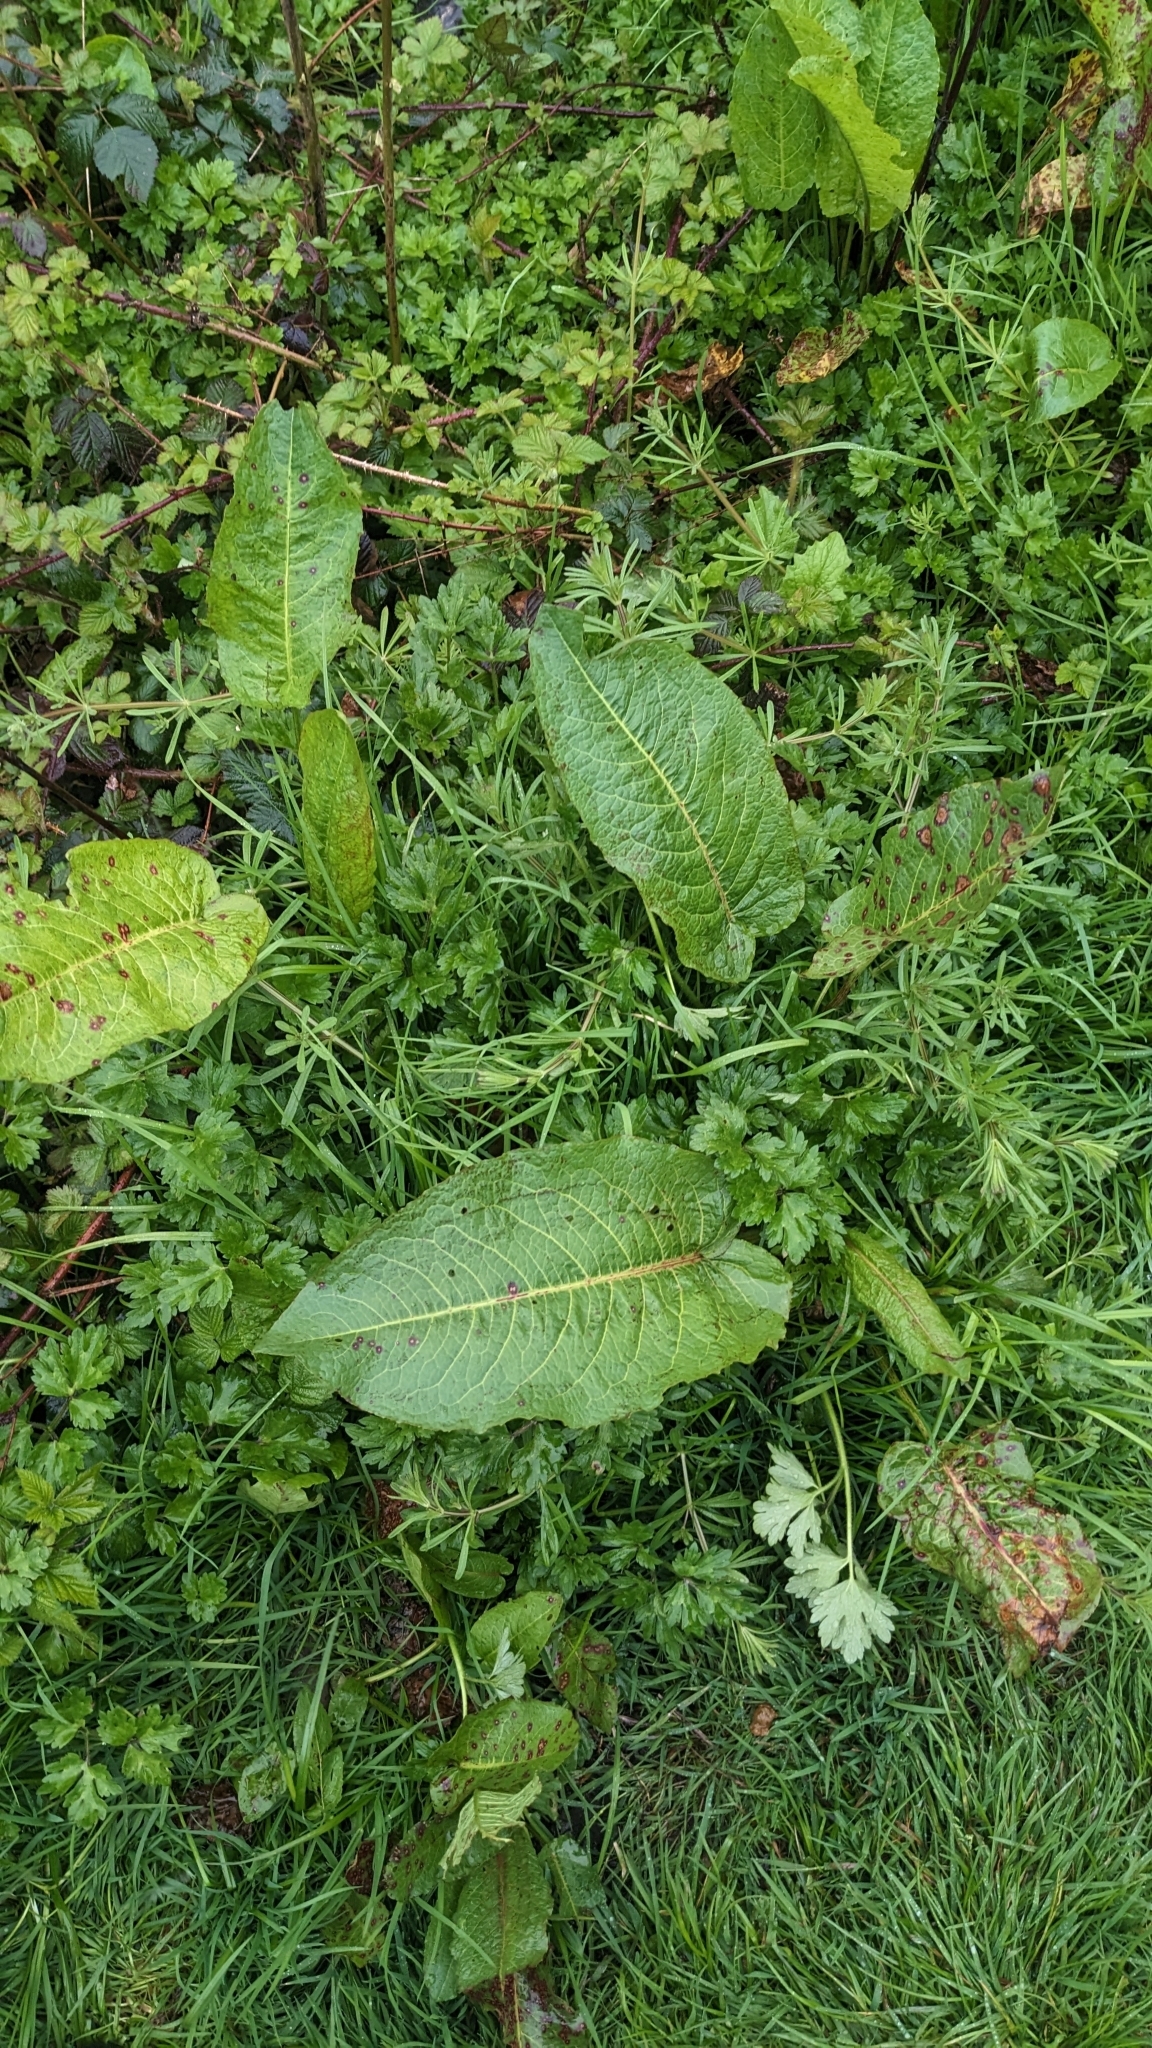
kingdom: Fungi
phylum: Ascomycota
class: Dothideomycetes
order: Mycosphaerellales
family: Mycosphaerellaceae
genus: Ramularia
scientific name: Ramularia rubella
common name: Red dock spot
